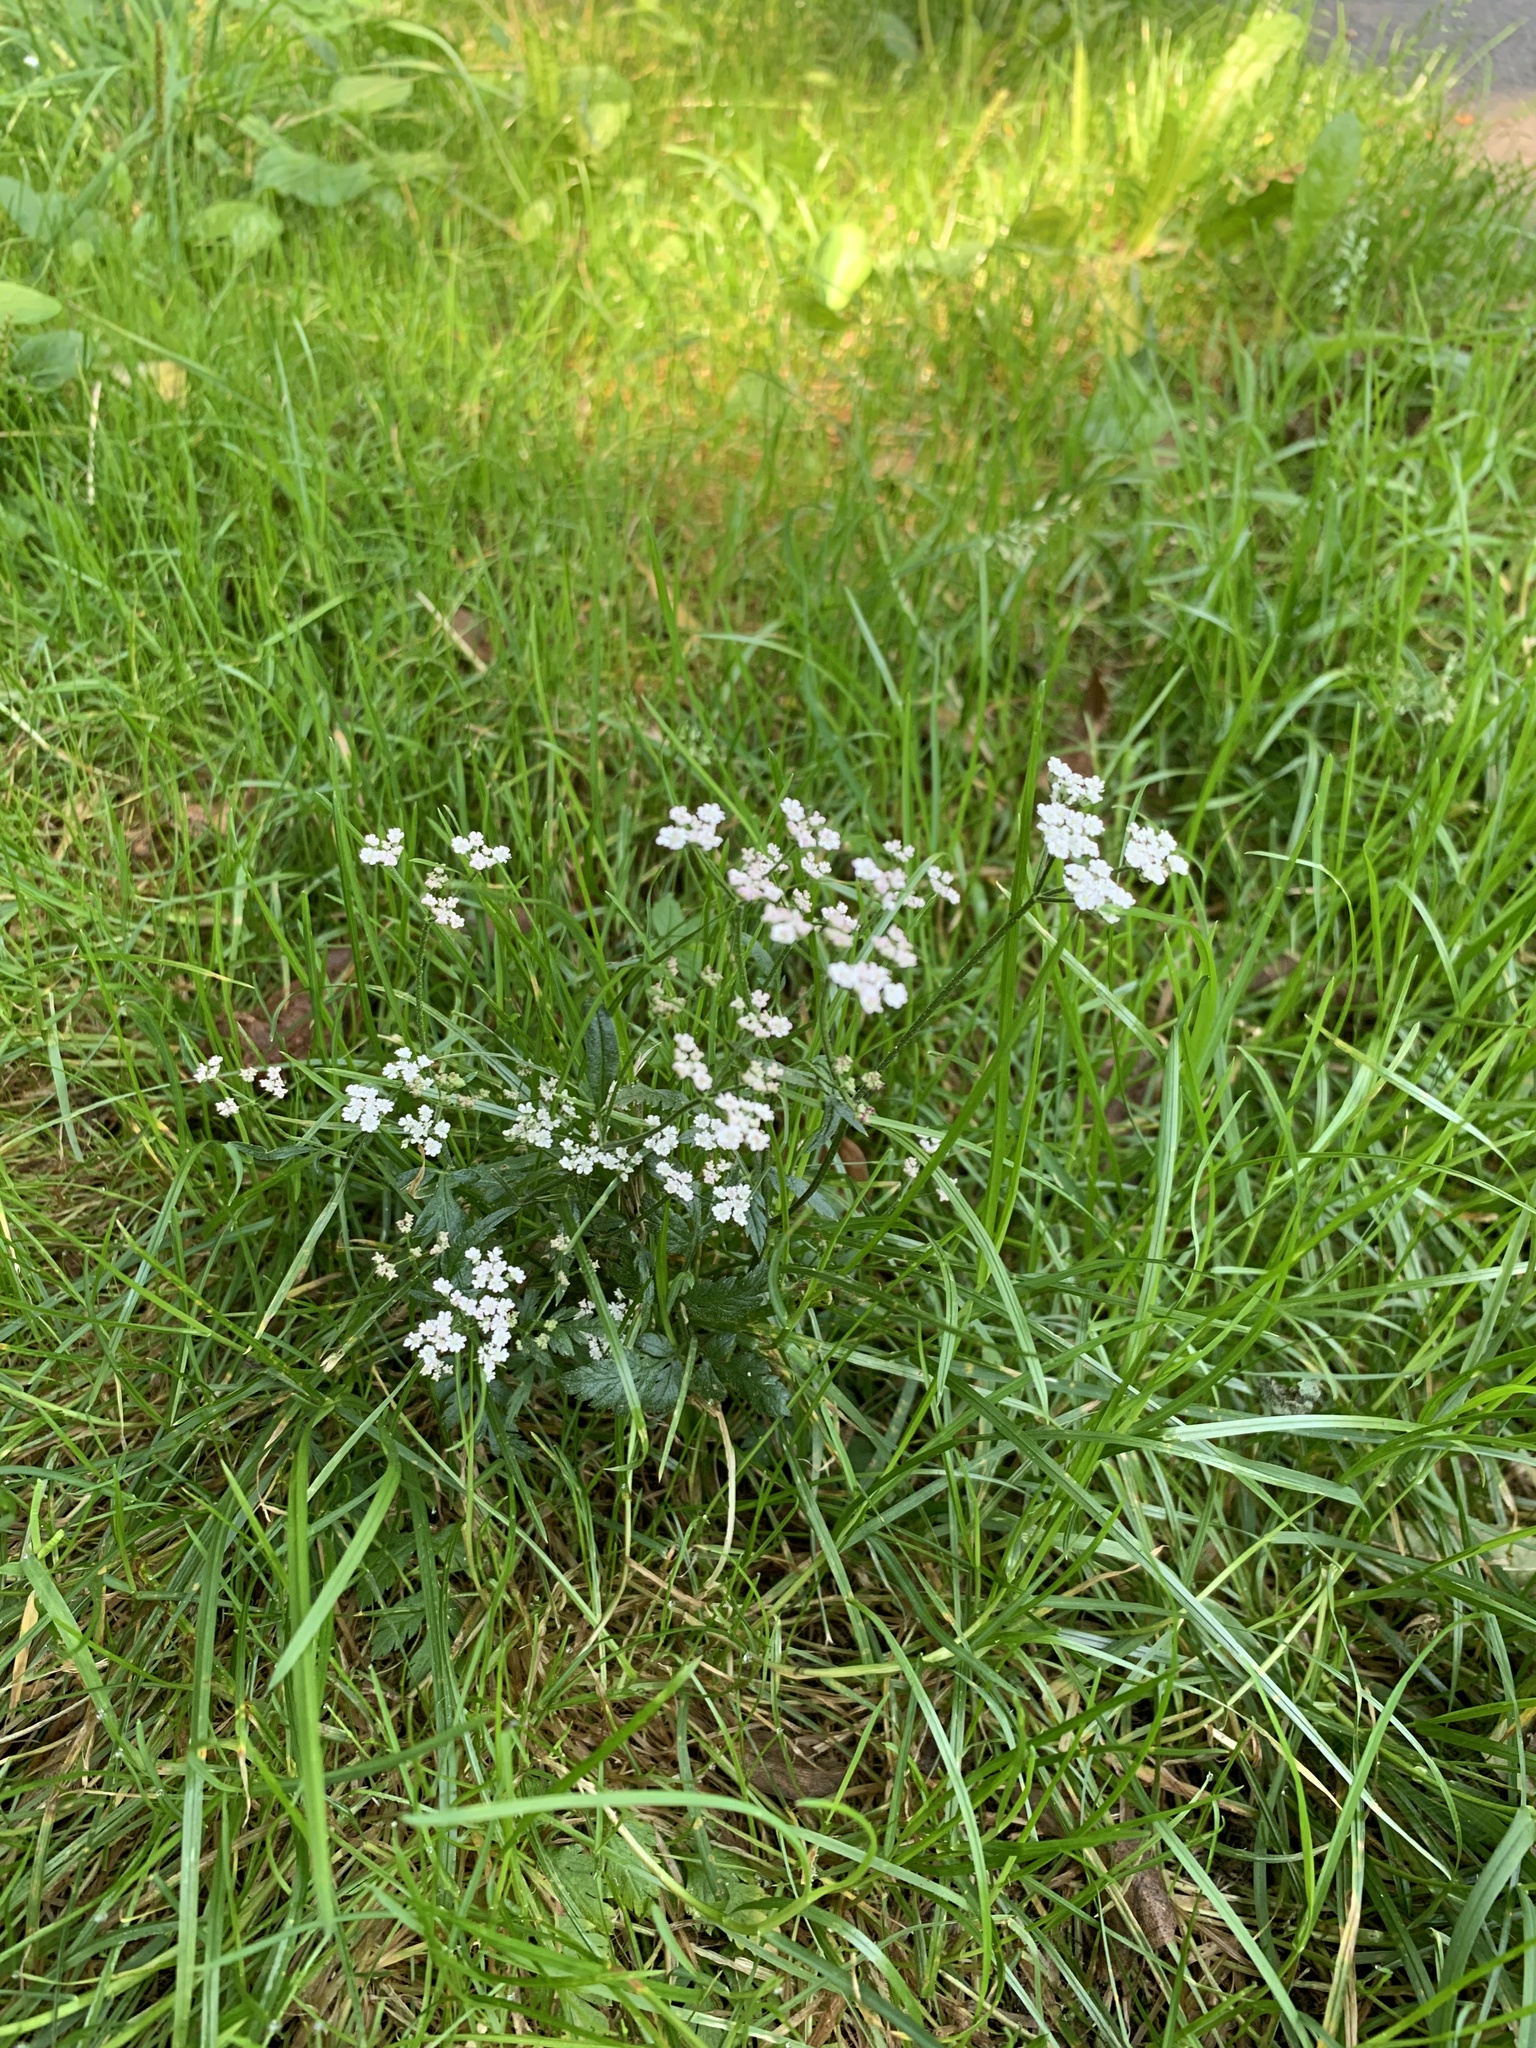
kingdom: Plantae
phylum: Tracheophyta
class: Magnoliopsida
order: Apiales
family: Apiaceae
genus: Torilis
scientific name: Torilis japonica
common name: Upright hedge-parsley
